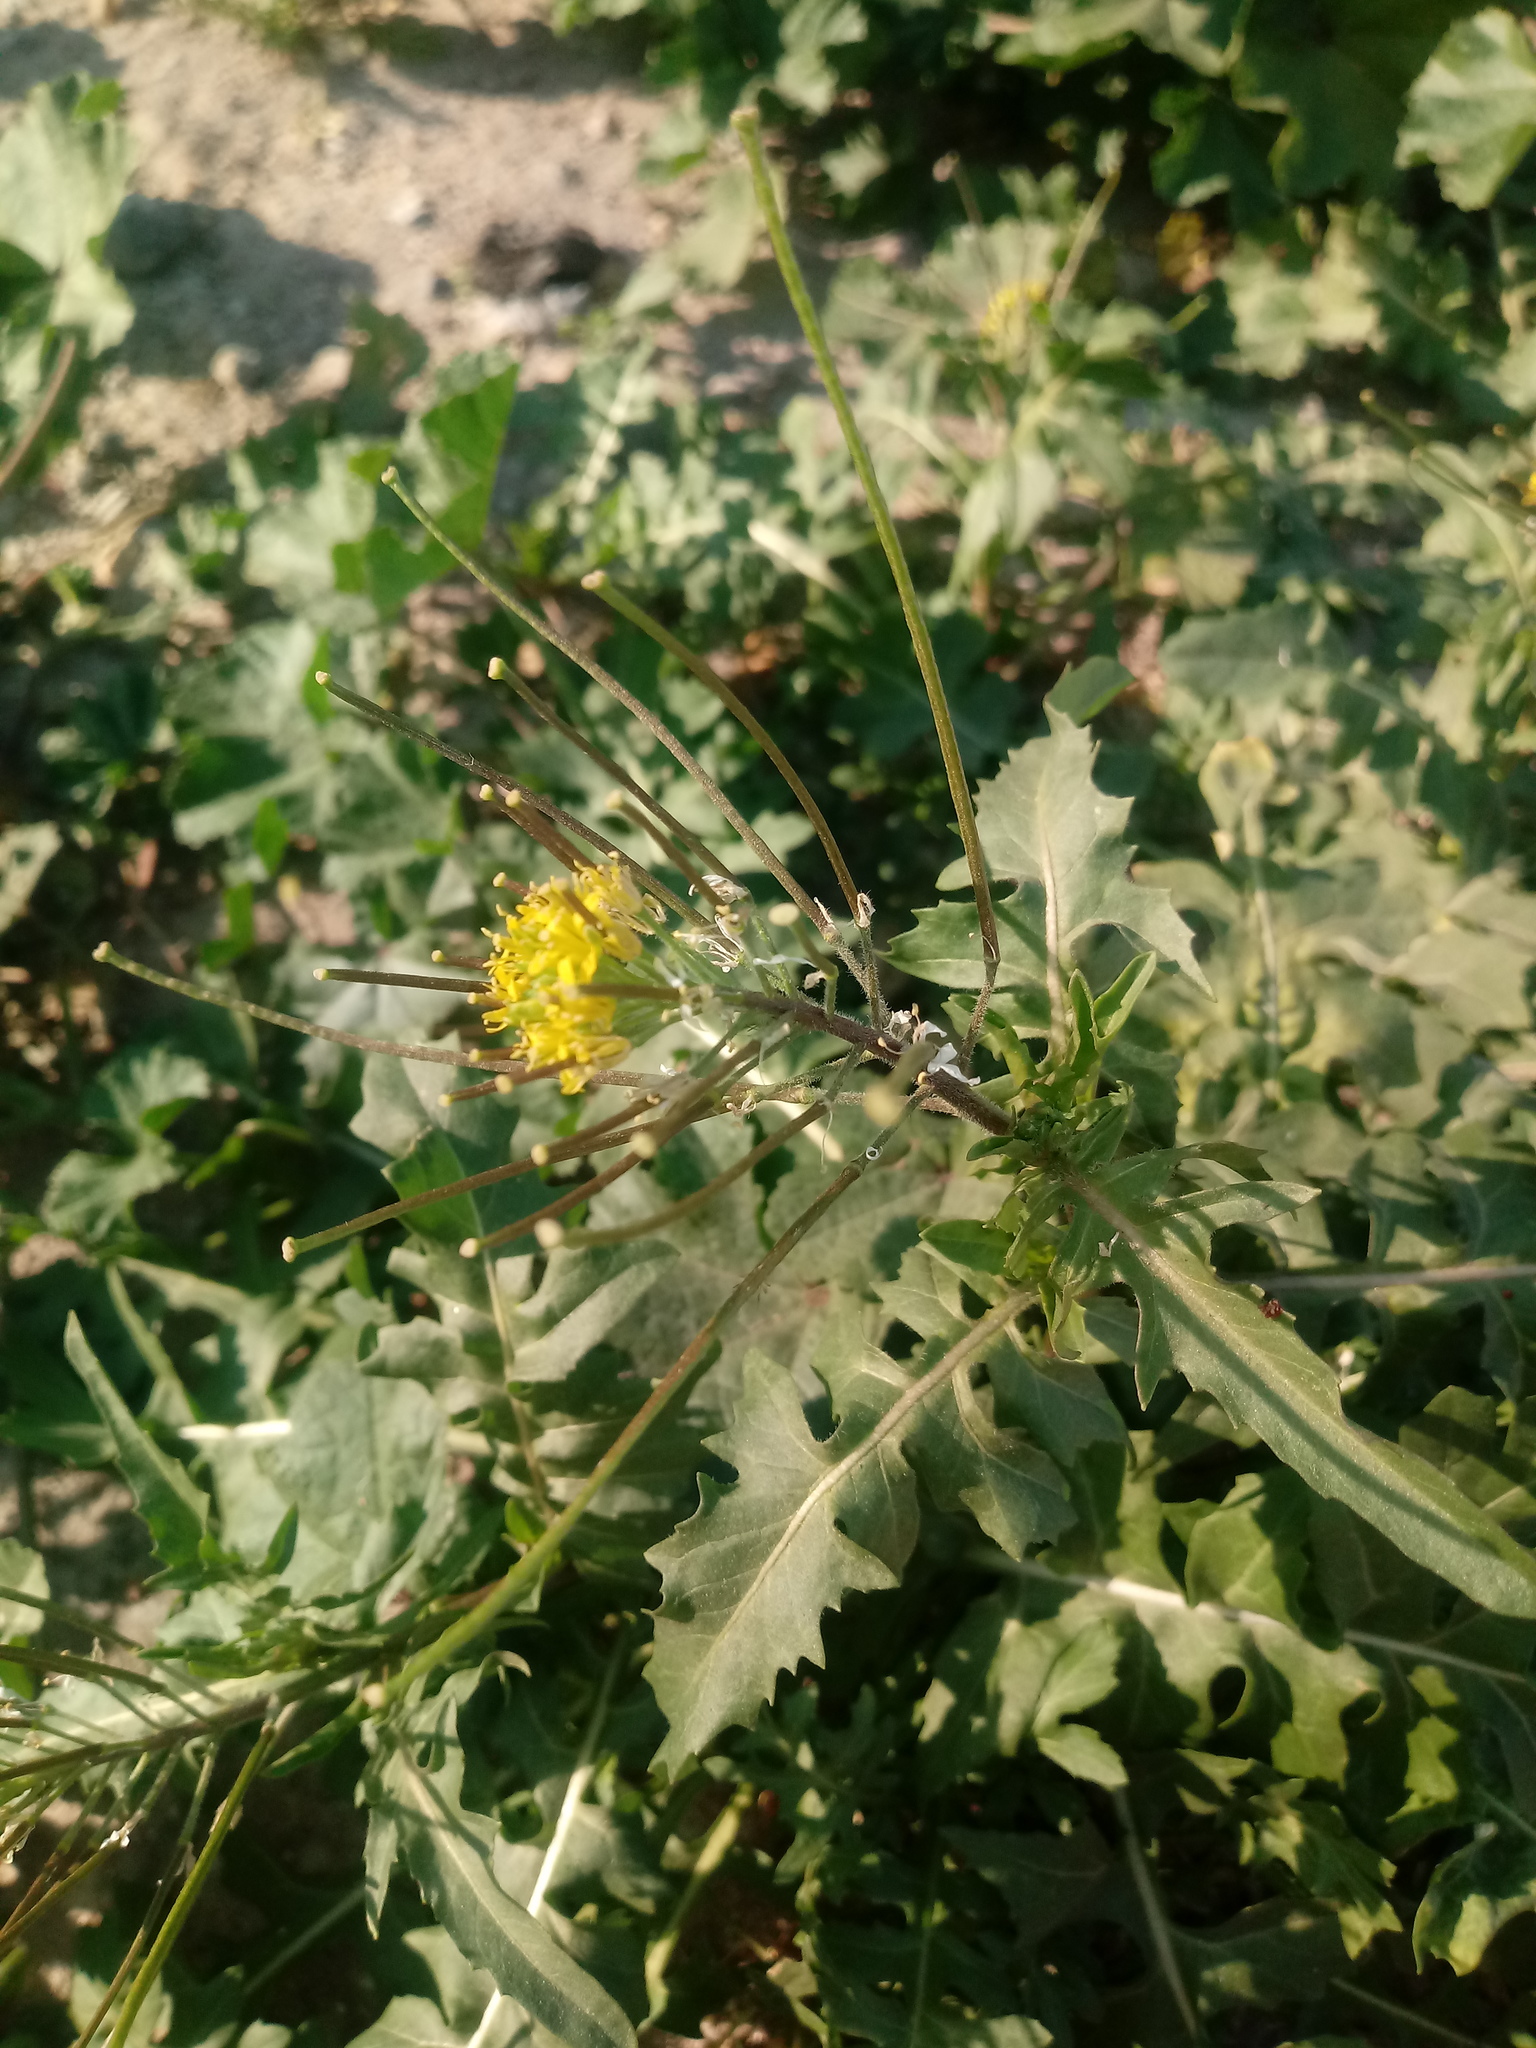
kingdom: Plantae
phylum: Tracheophyta
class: Magnoliopsida
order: Brassicales
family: Brassicaceae
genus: Sisymbrium
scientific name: Sisymbrium irio
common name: London rocket
